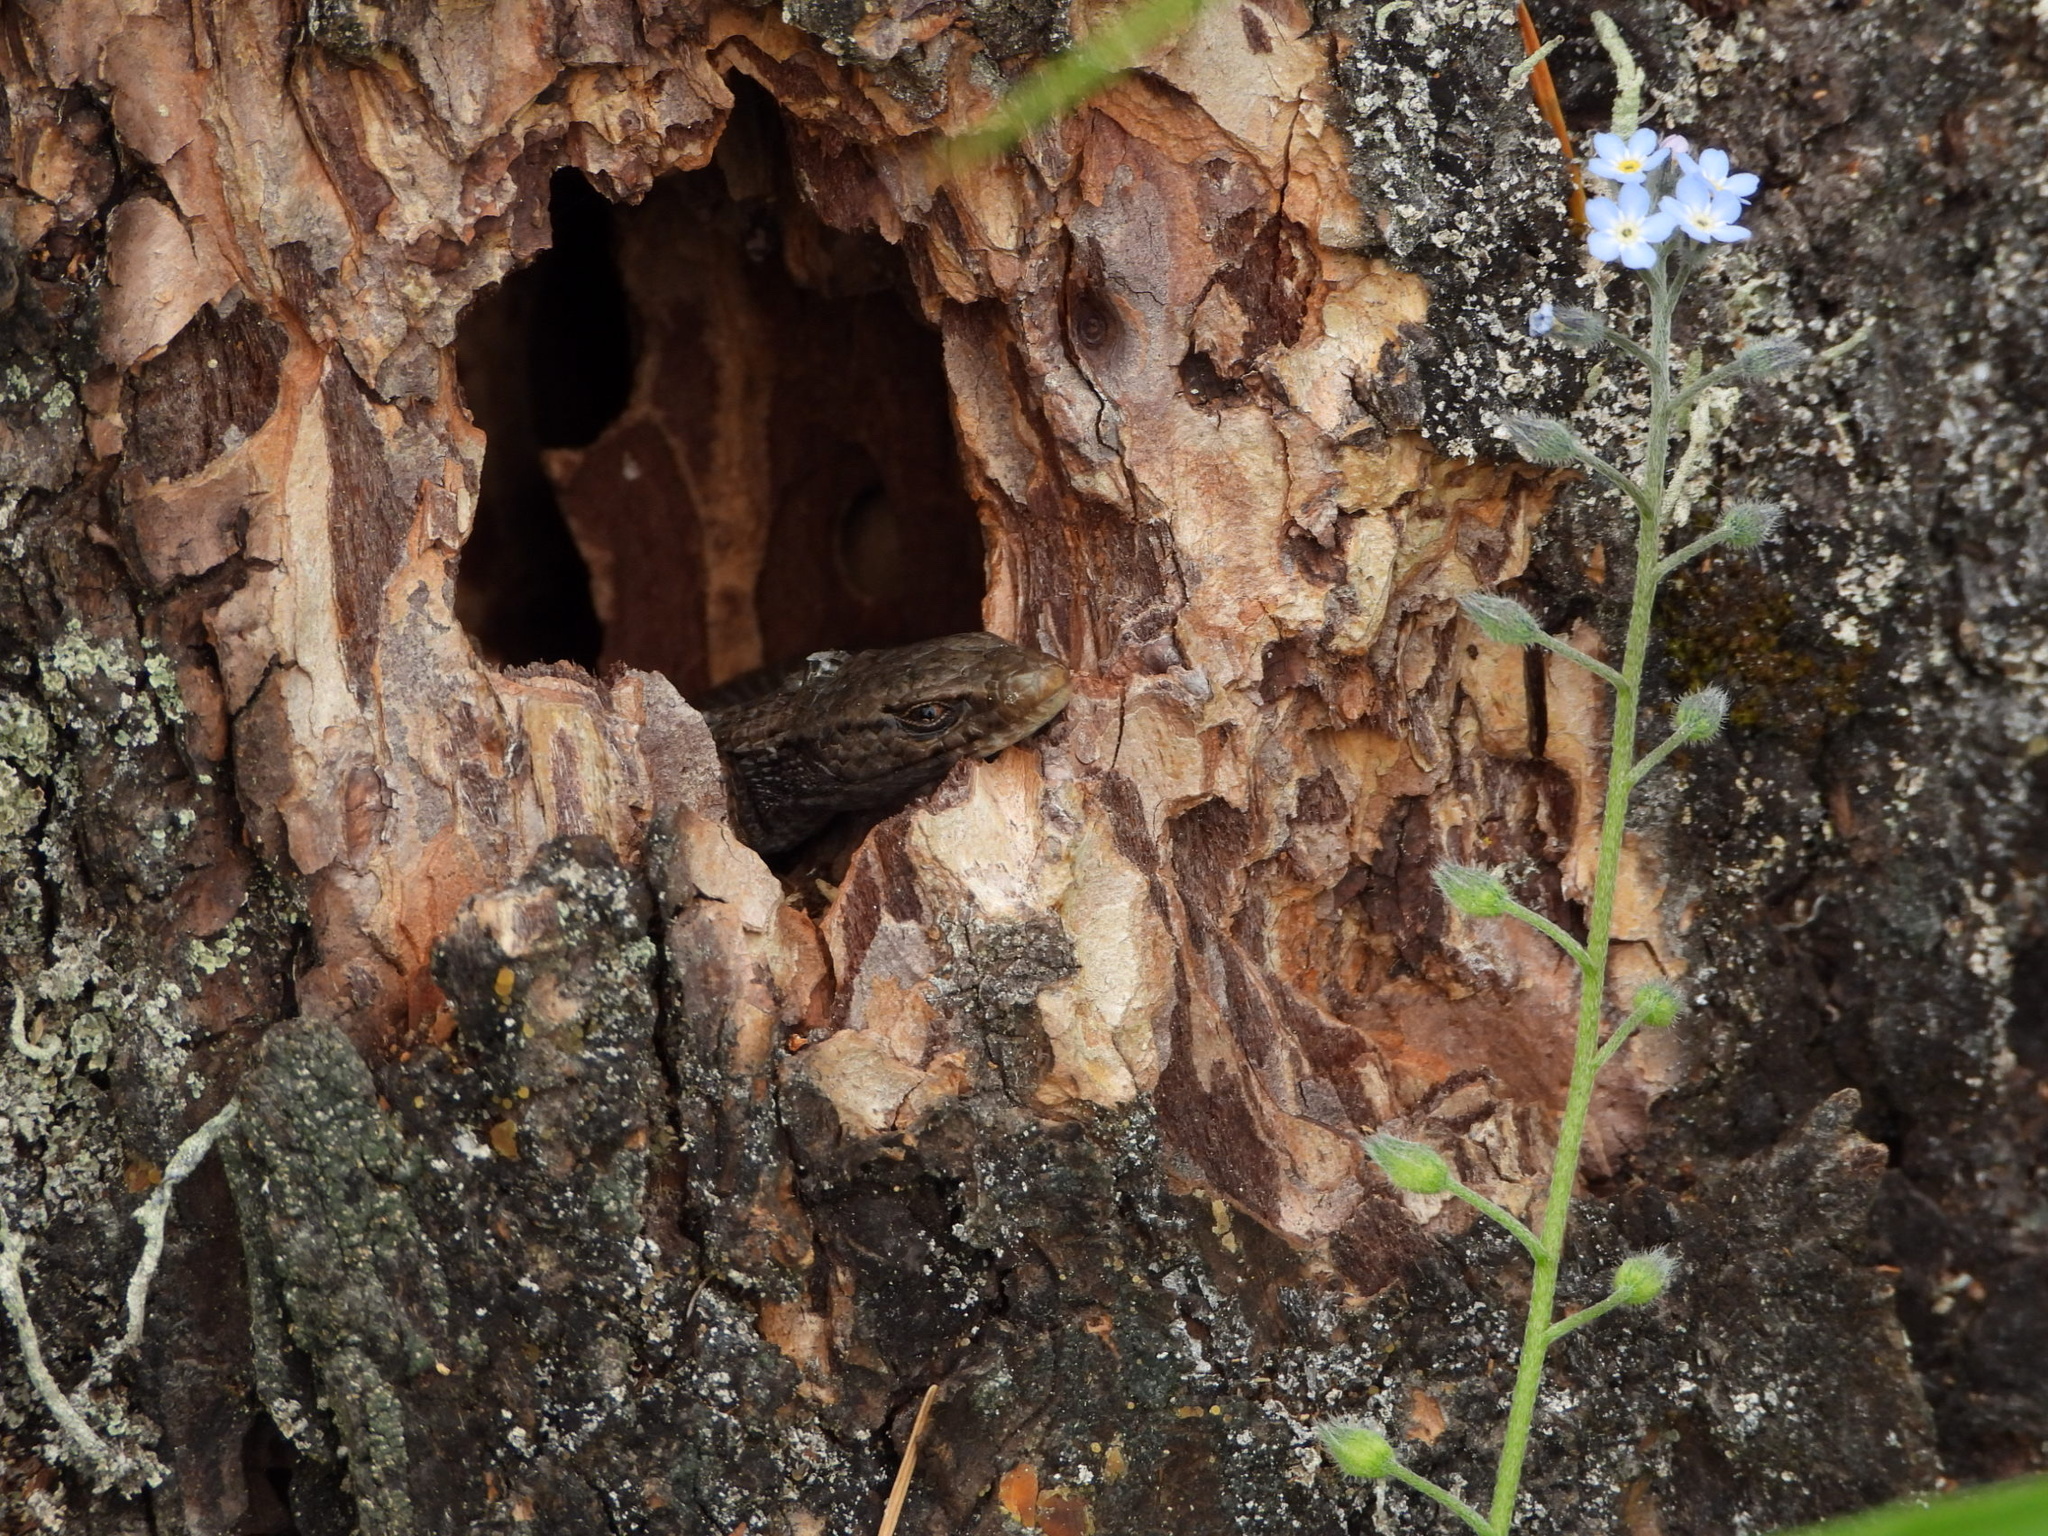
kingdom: Animalia
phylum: Chordata
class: Squamata
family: Anguidae
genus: Elgaria
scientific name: Elgaria coerulea
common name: Northern alligator lizard
